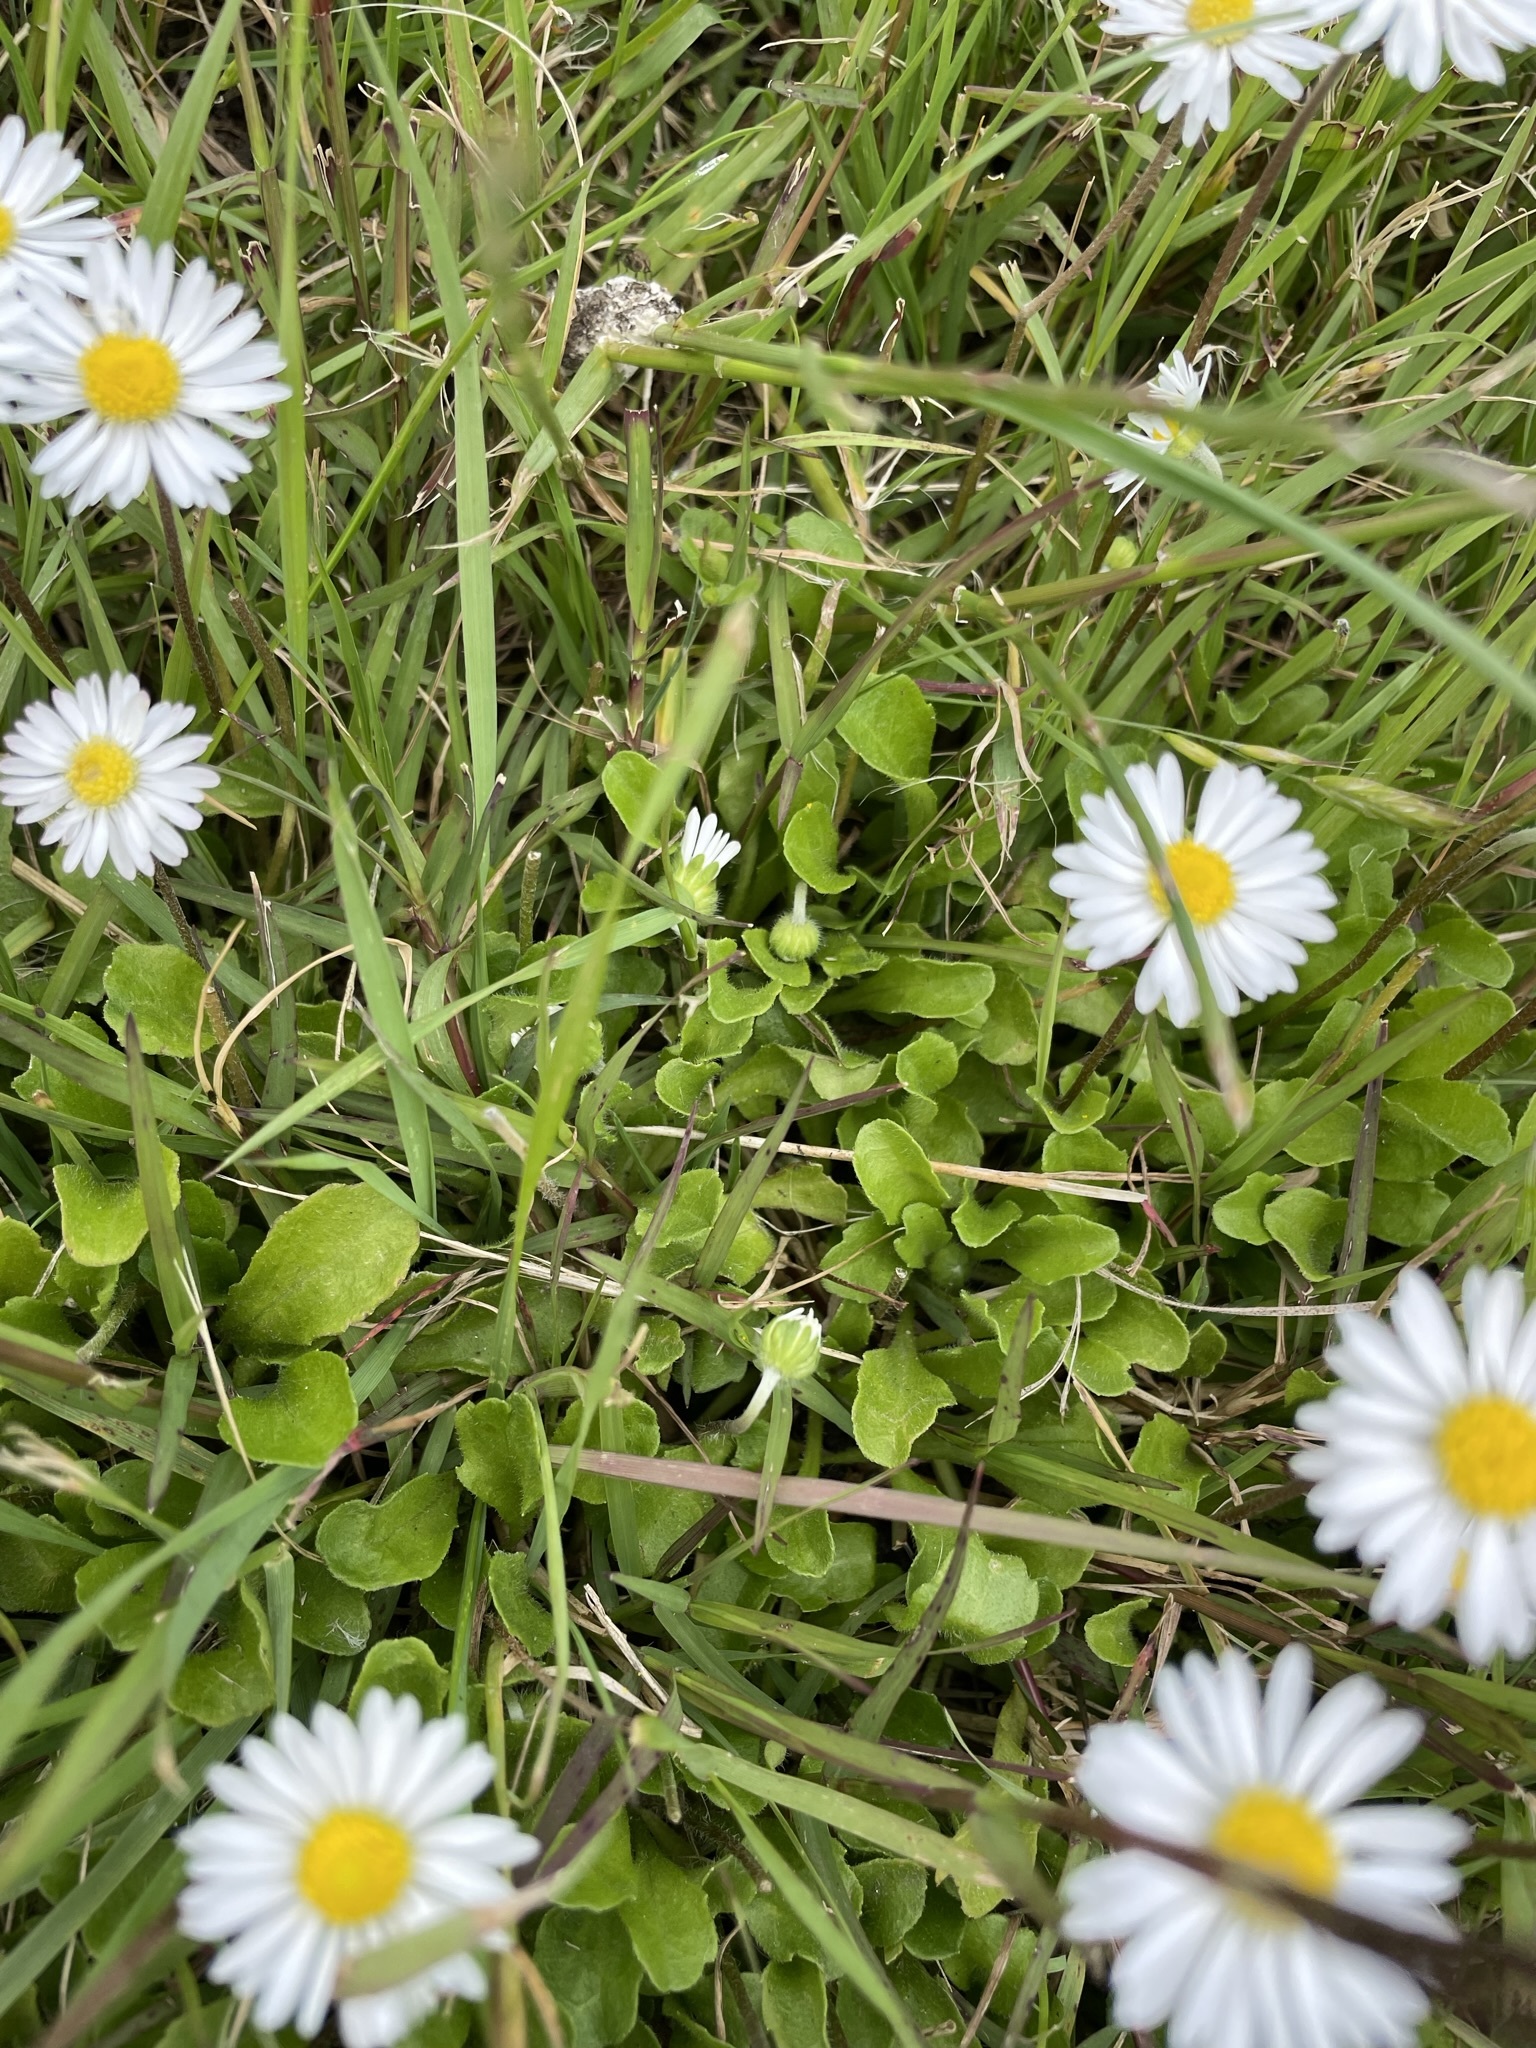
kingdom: Plantae
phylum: Tracheophyta
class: Magnoliopsida
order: Asterales
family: Asteraceae
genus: Bellis
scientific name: Bellis perennis
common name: Lawndaisy
